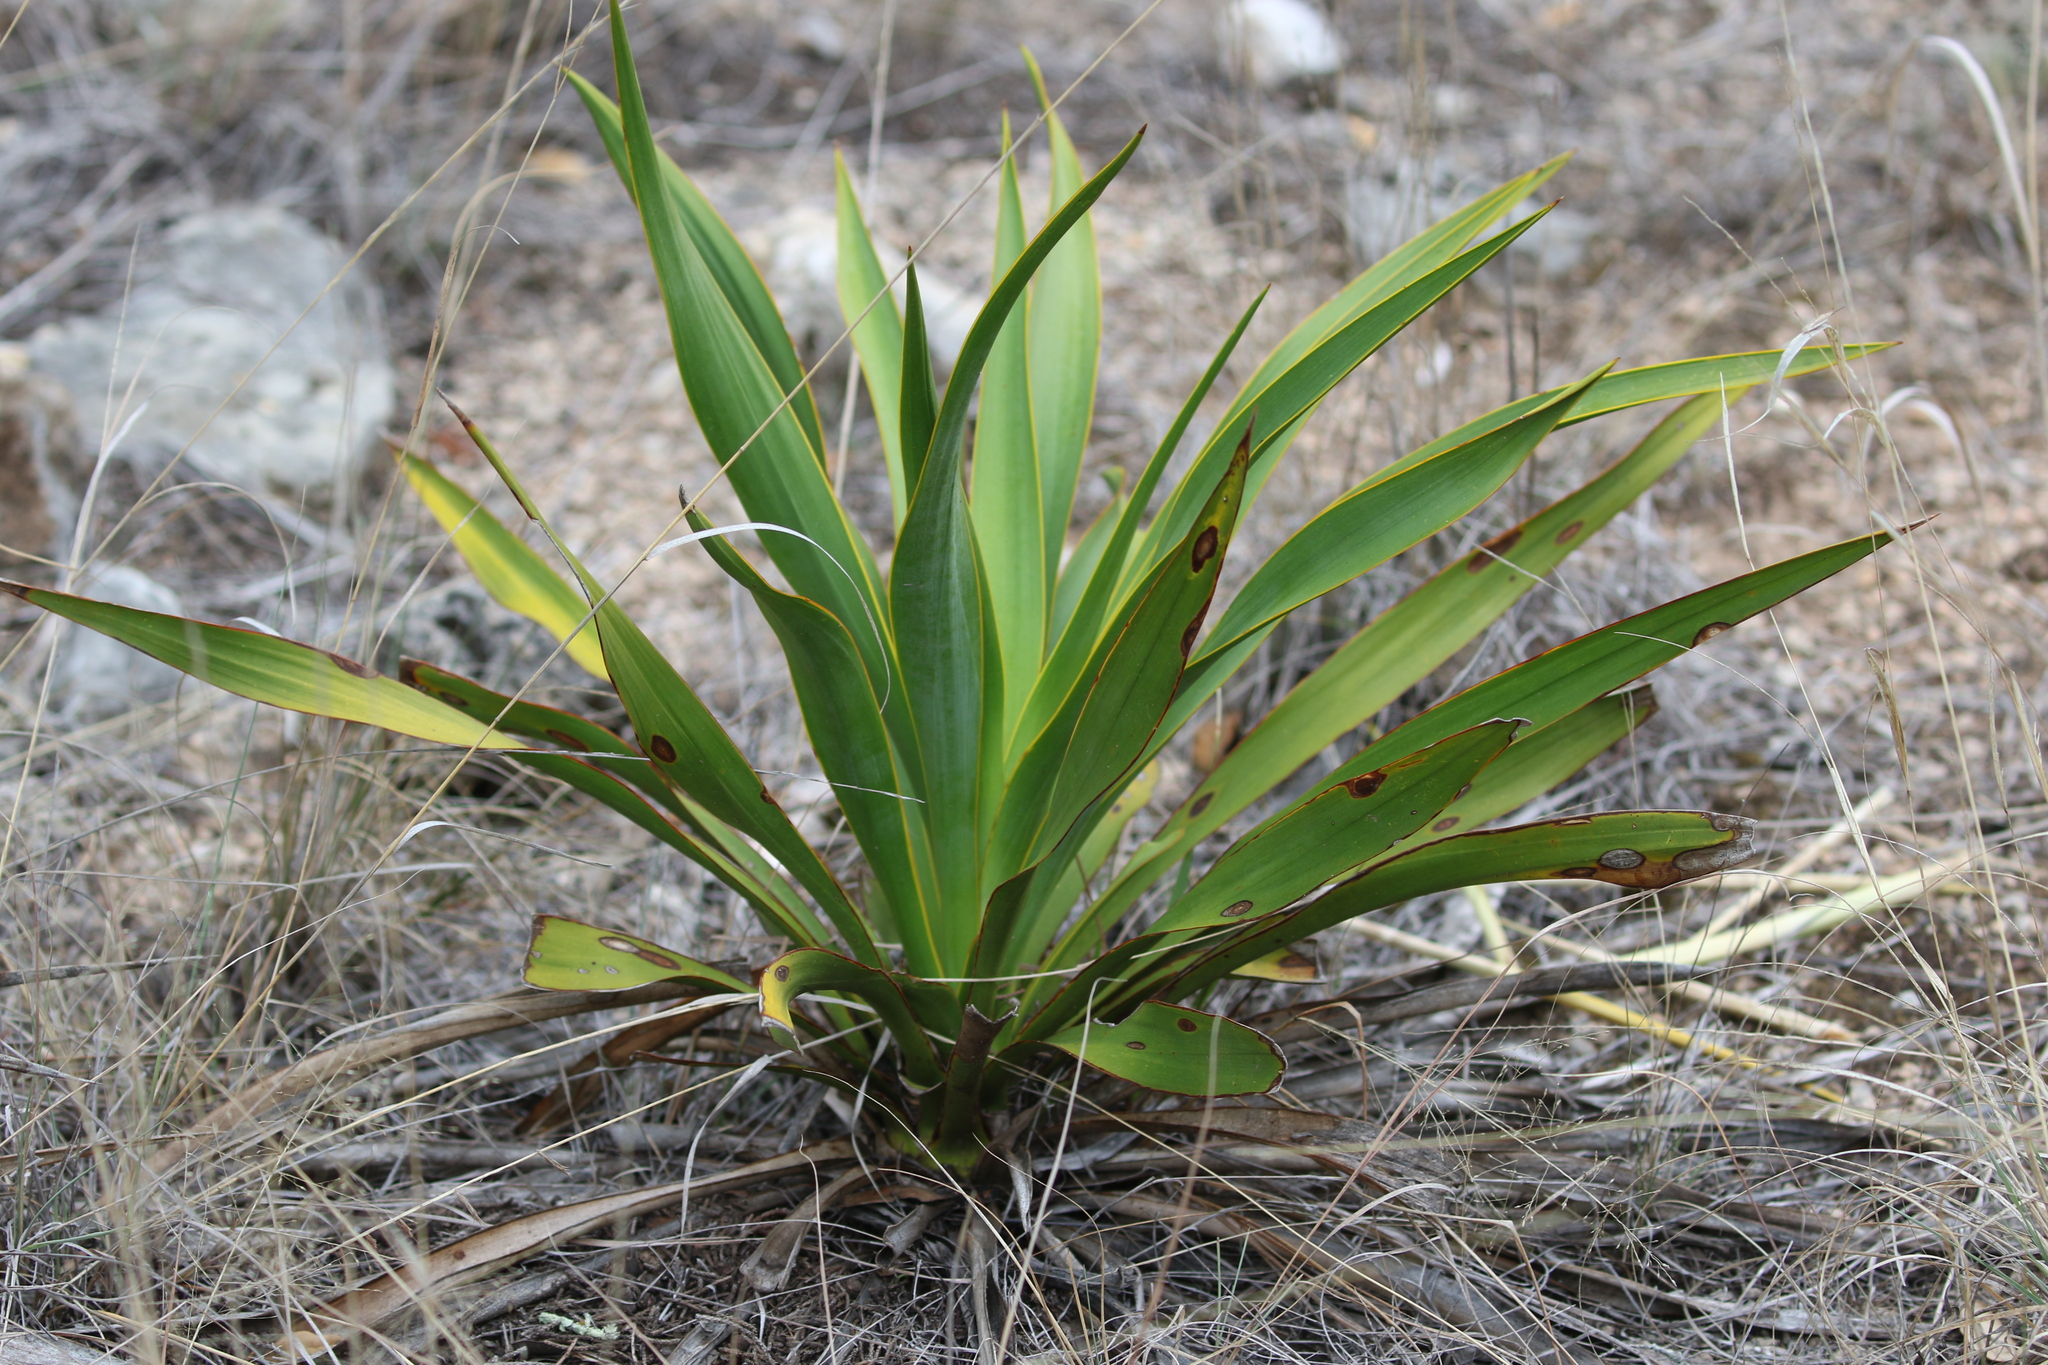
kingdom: Plantae
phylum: Tracheophyta
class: Liliopsida
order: Asparagales
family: Asparagaceae
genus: Yucca
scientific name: Yucca rupicola
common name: Twisted-leaf spanish-dagger
